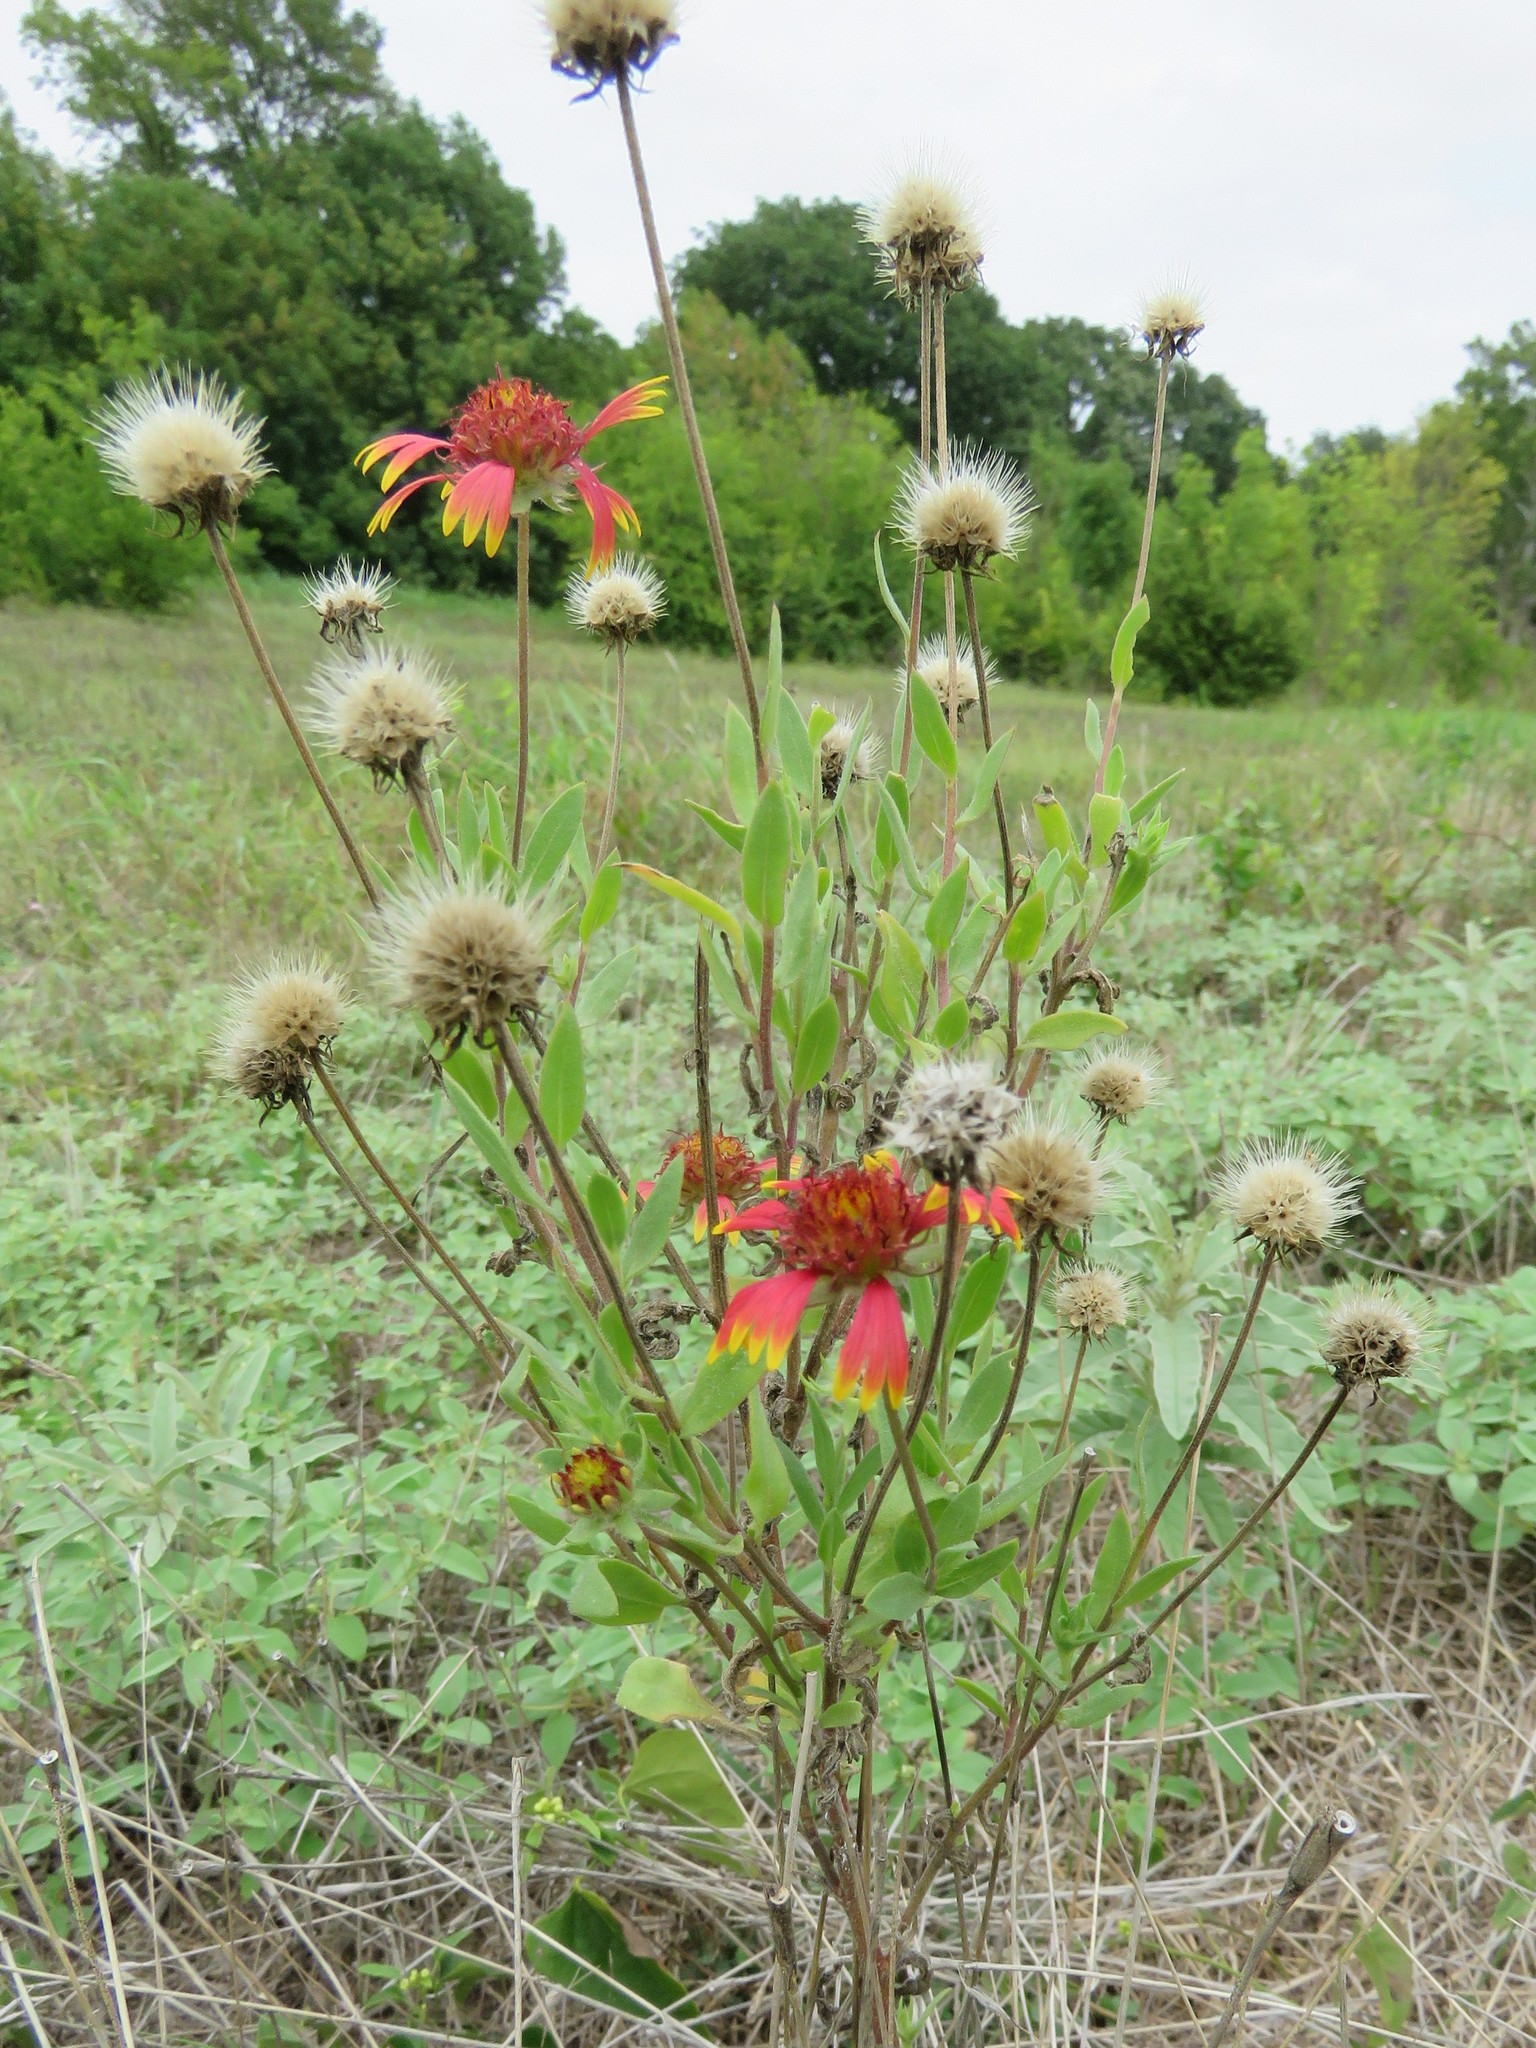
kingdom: Plantae
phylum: Tracheophyta
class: Magnoliopsida
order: Asterales
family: Asteraceae
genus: Gaillardia
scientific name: Gaillardia pulchella
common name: Firewheel
